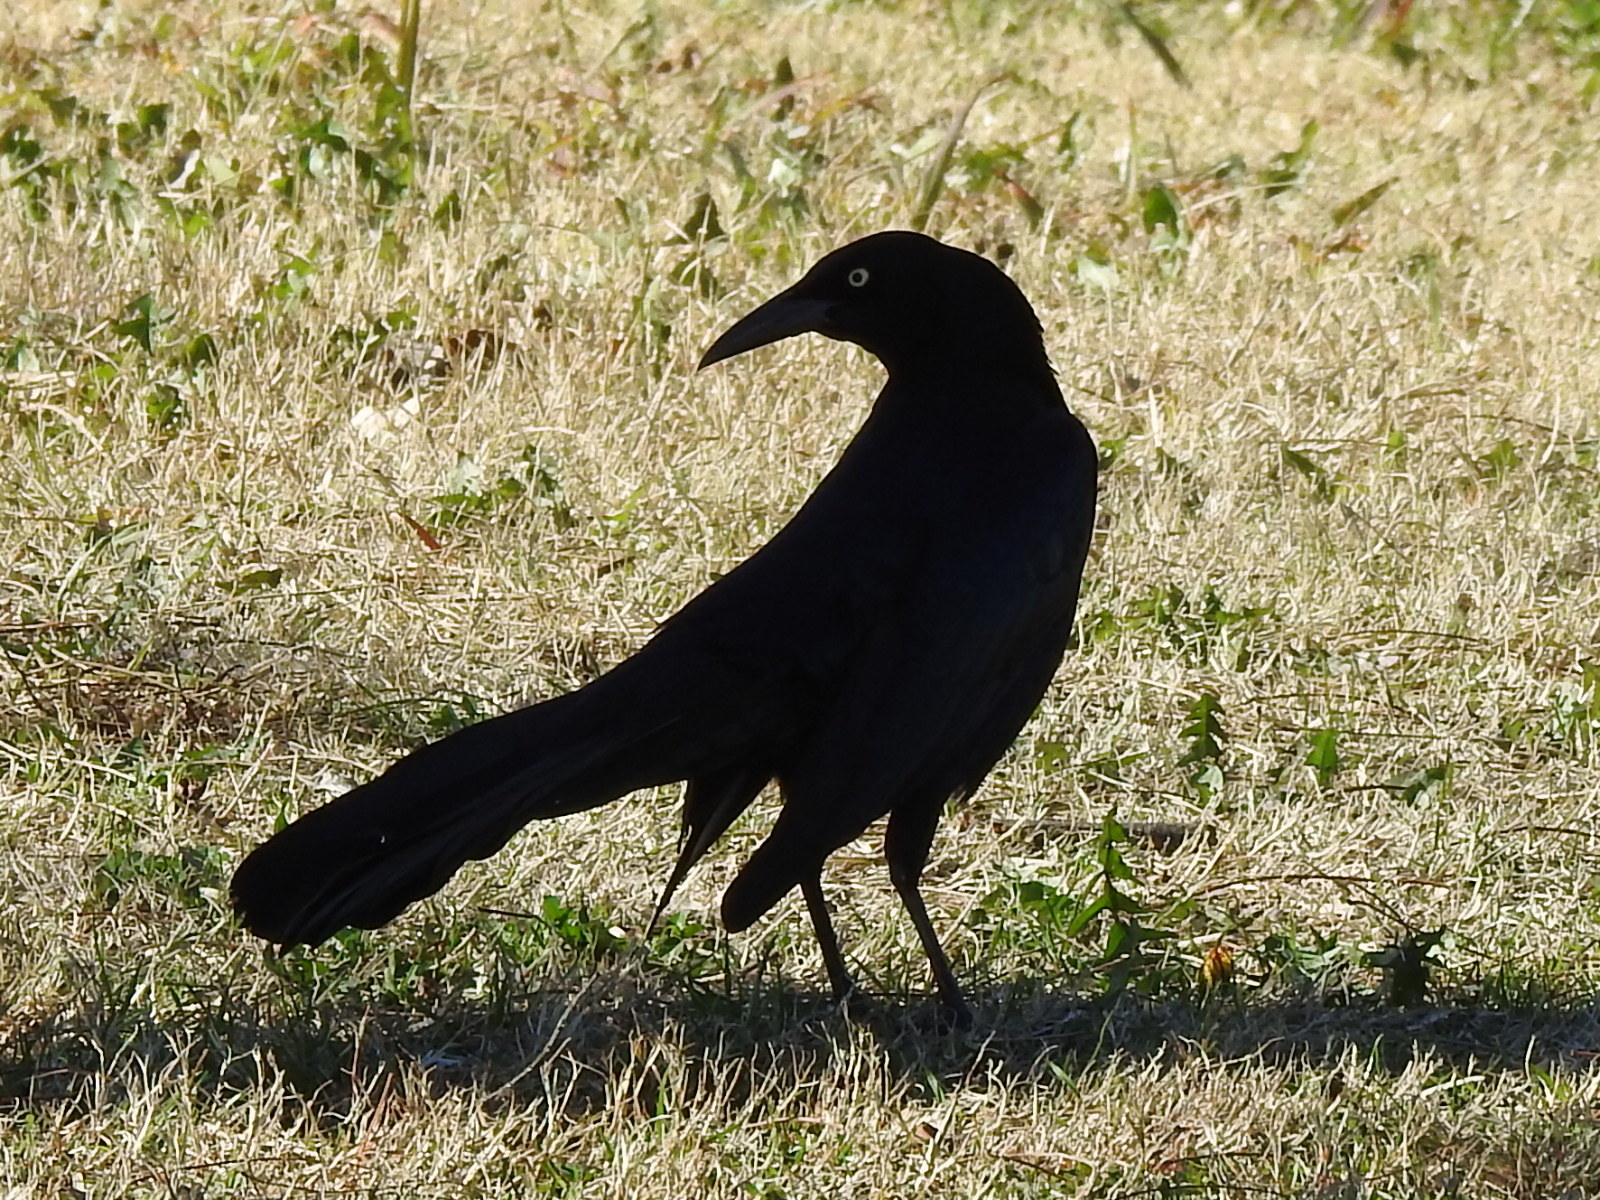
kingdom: Animalia
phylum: Chordata
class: Aves
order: Passeriformes
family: Icteridae
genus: Quiscalus
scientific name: Quiscalus mexicanus
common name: Great-tailed grackle
